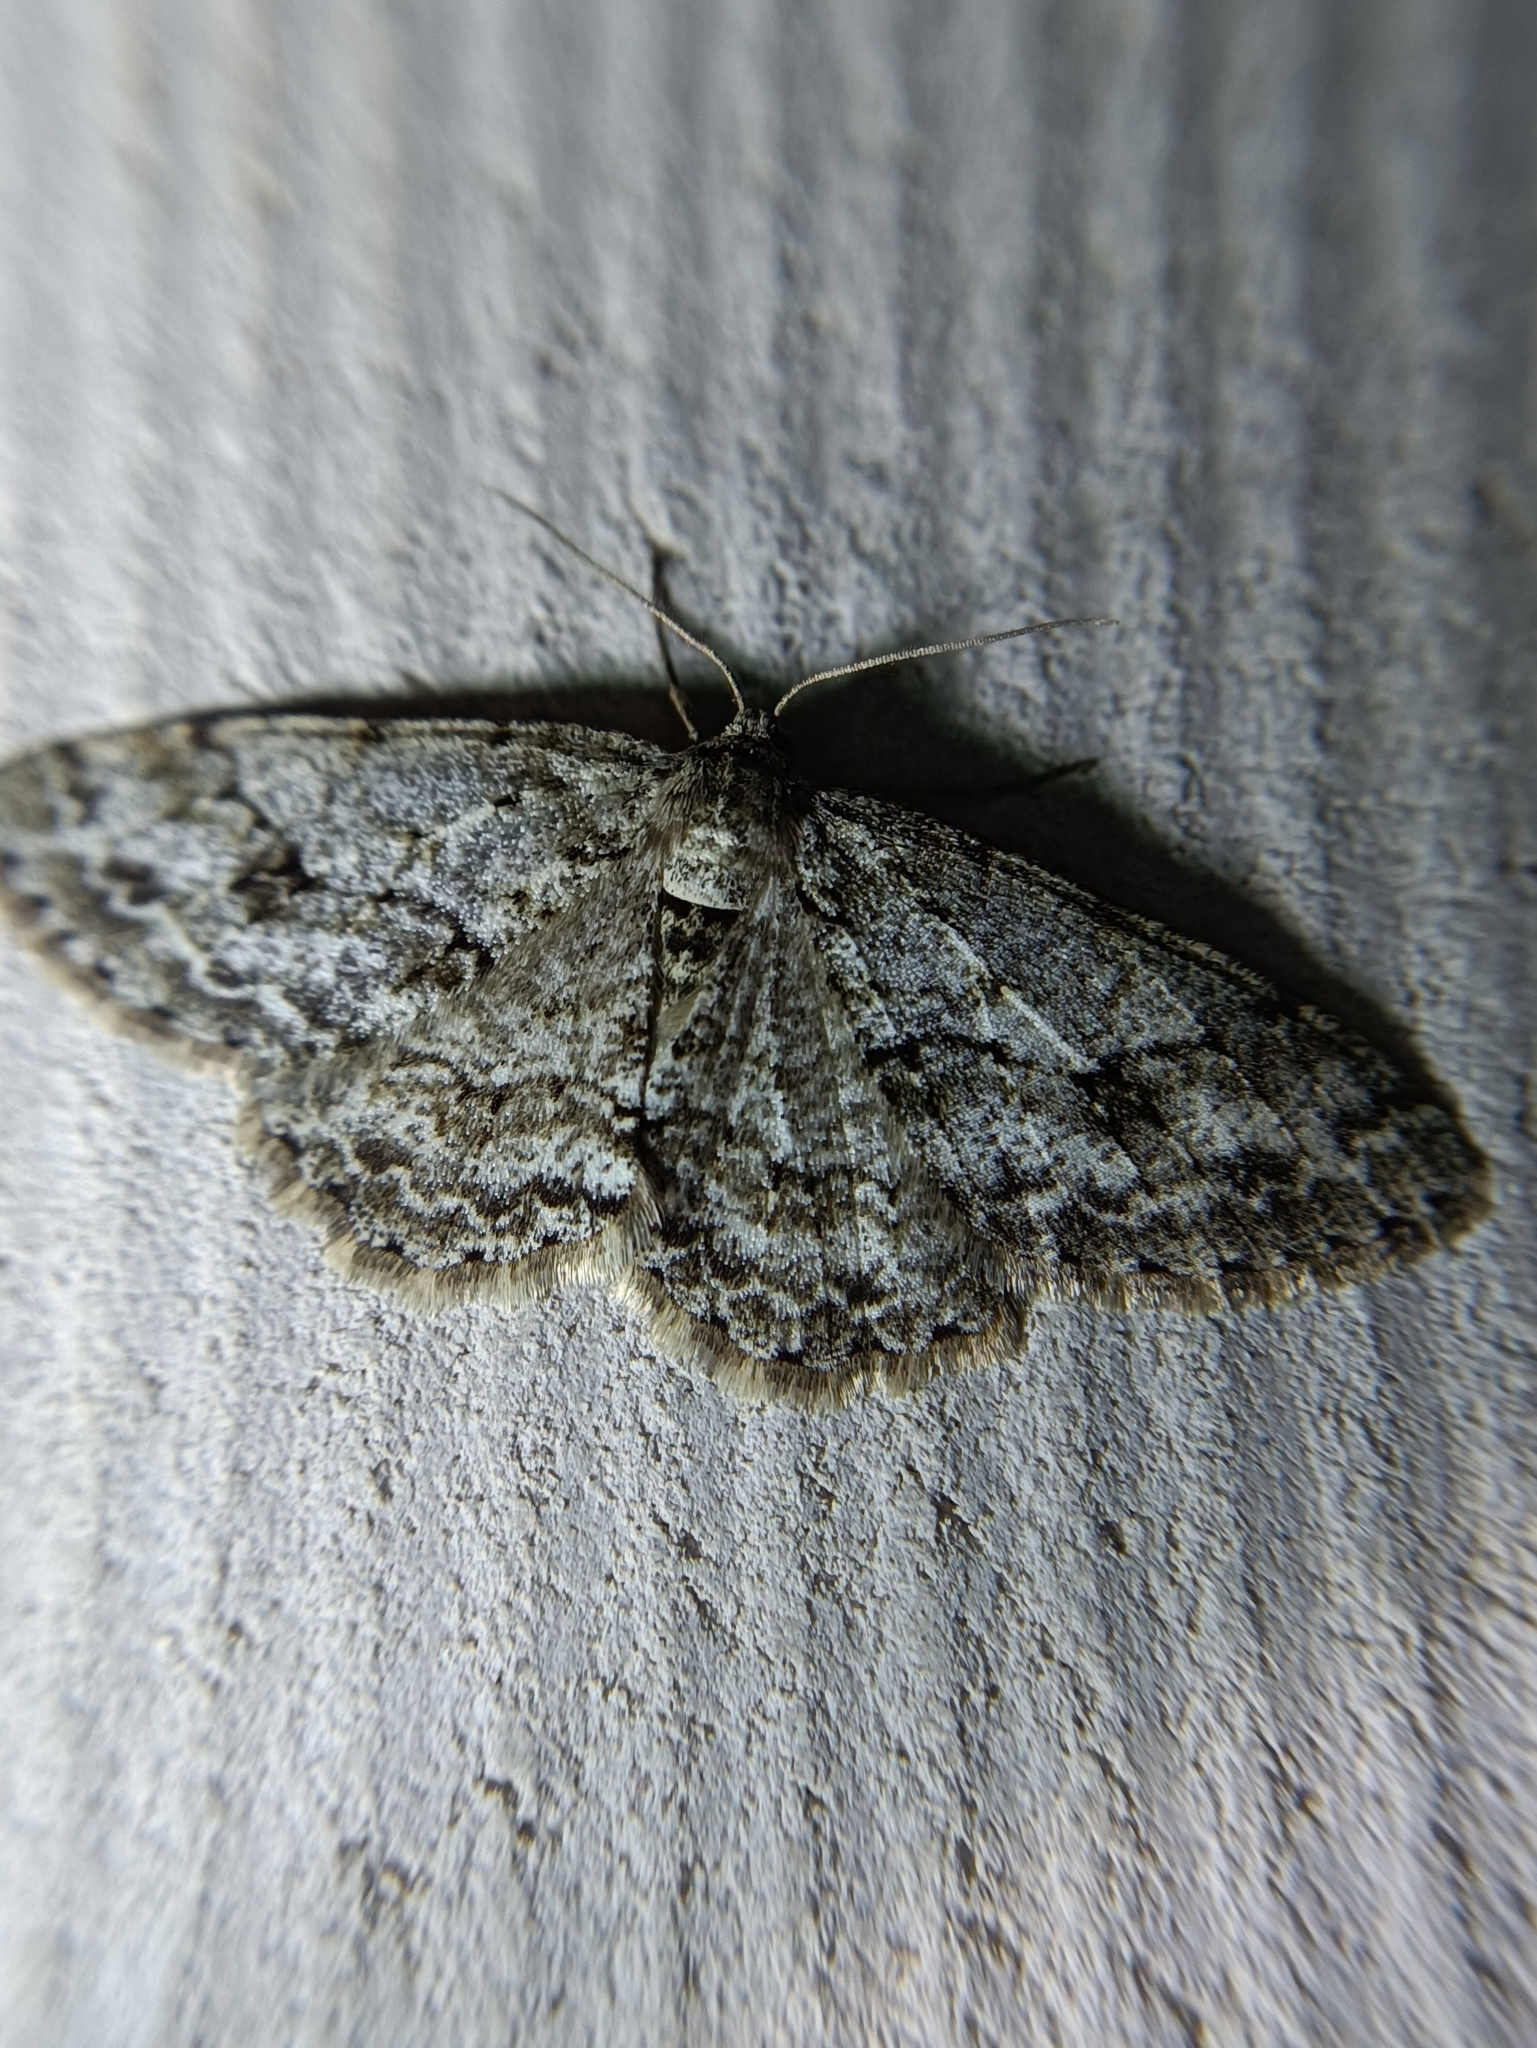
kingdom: Animalia
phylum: Arthropoda
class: Insecta
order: Lepidoptera
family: Geometridae
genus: Ectropis
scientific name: Ectropis crepuscularia
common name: Engrailed
